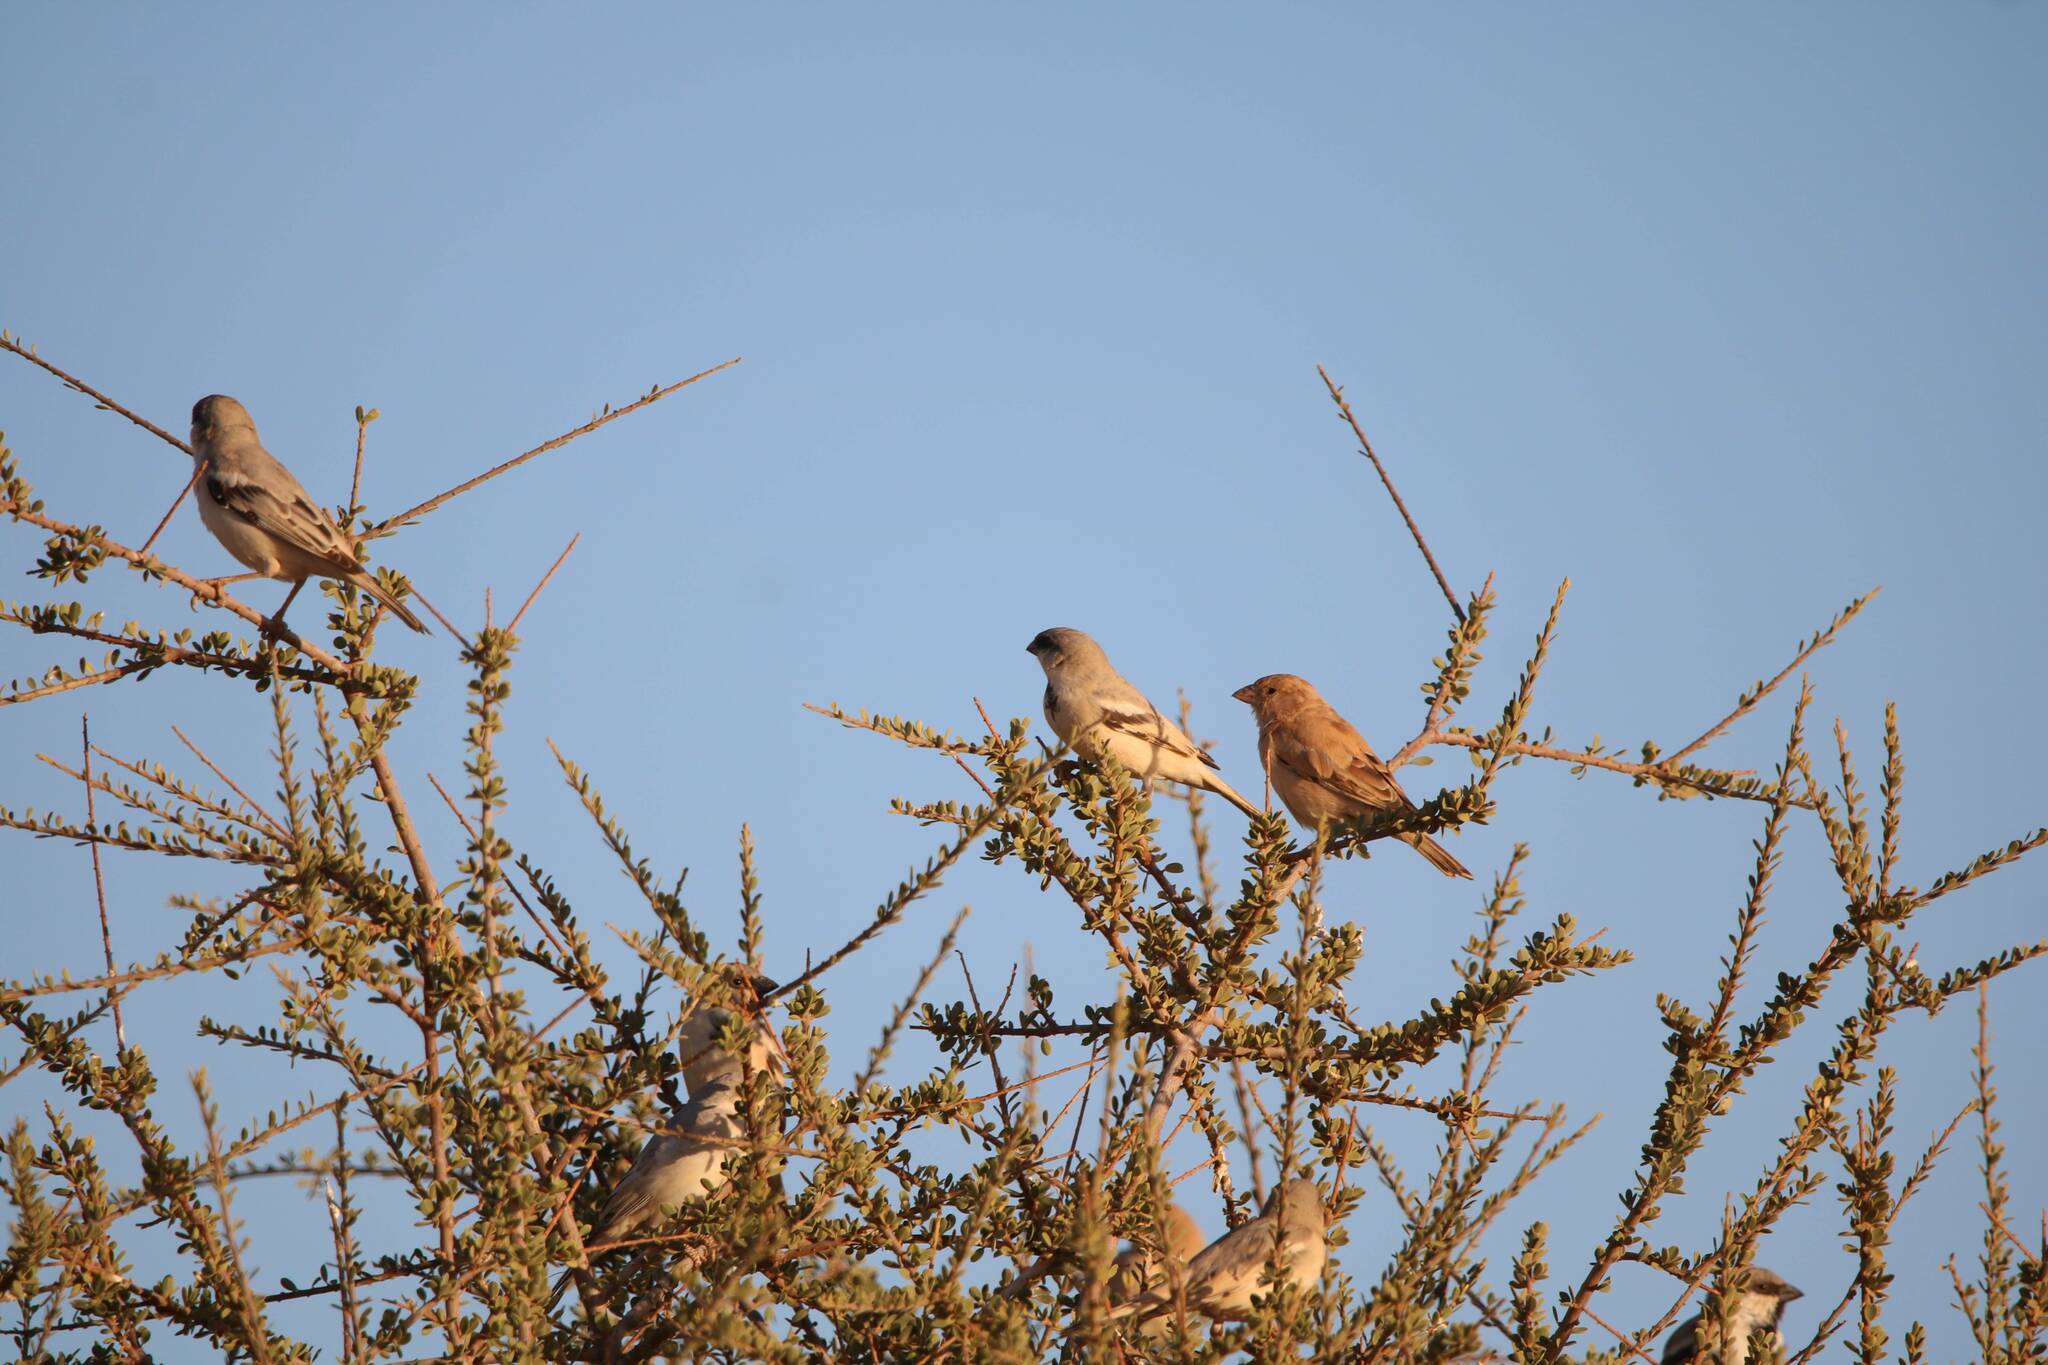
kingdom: Animalia
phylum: Chordata
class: Aves
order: Passeriformes
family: Passeridae
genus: Passer
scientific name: Passer simplex
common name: Desert sparrow
